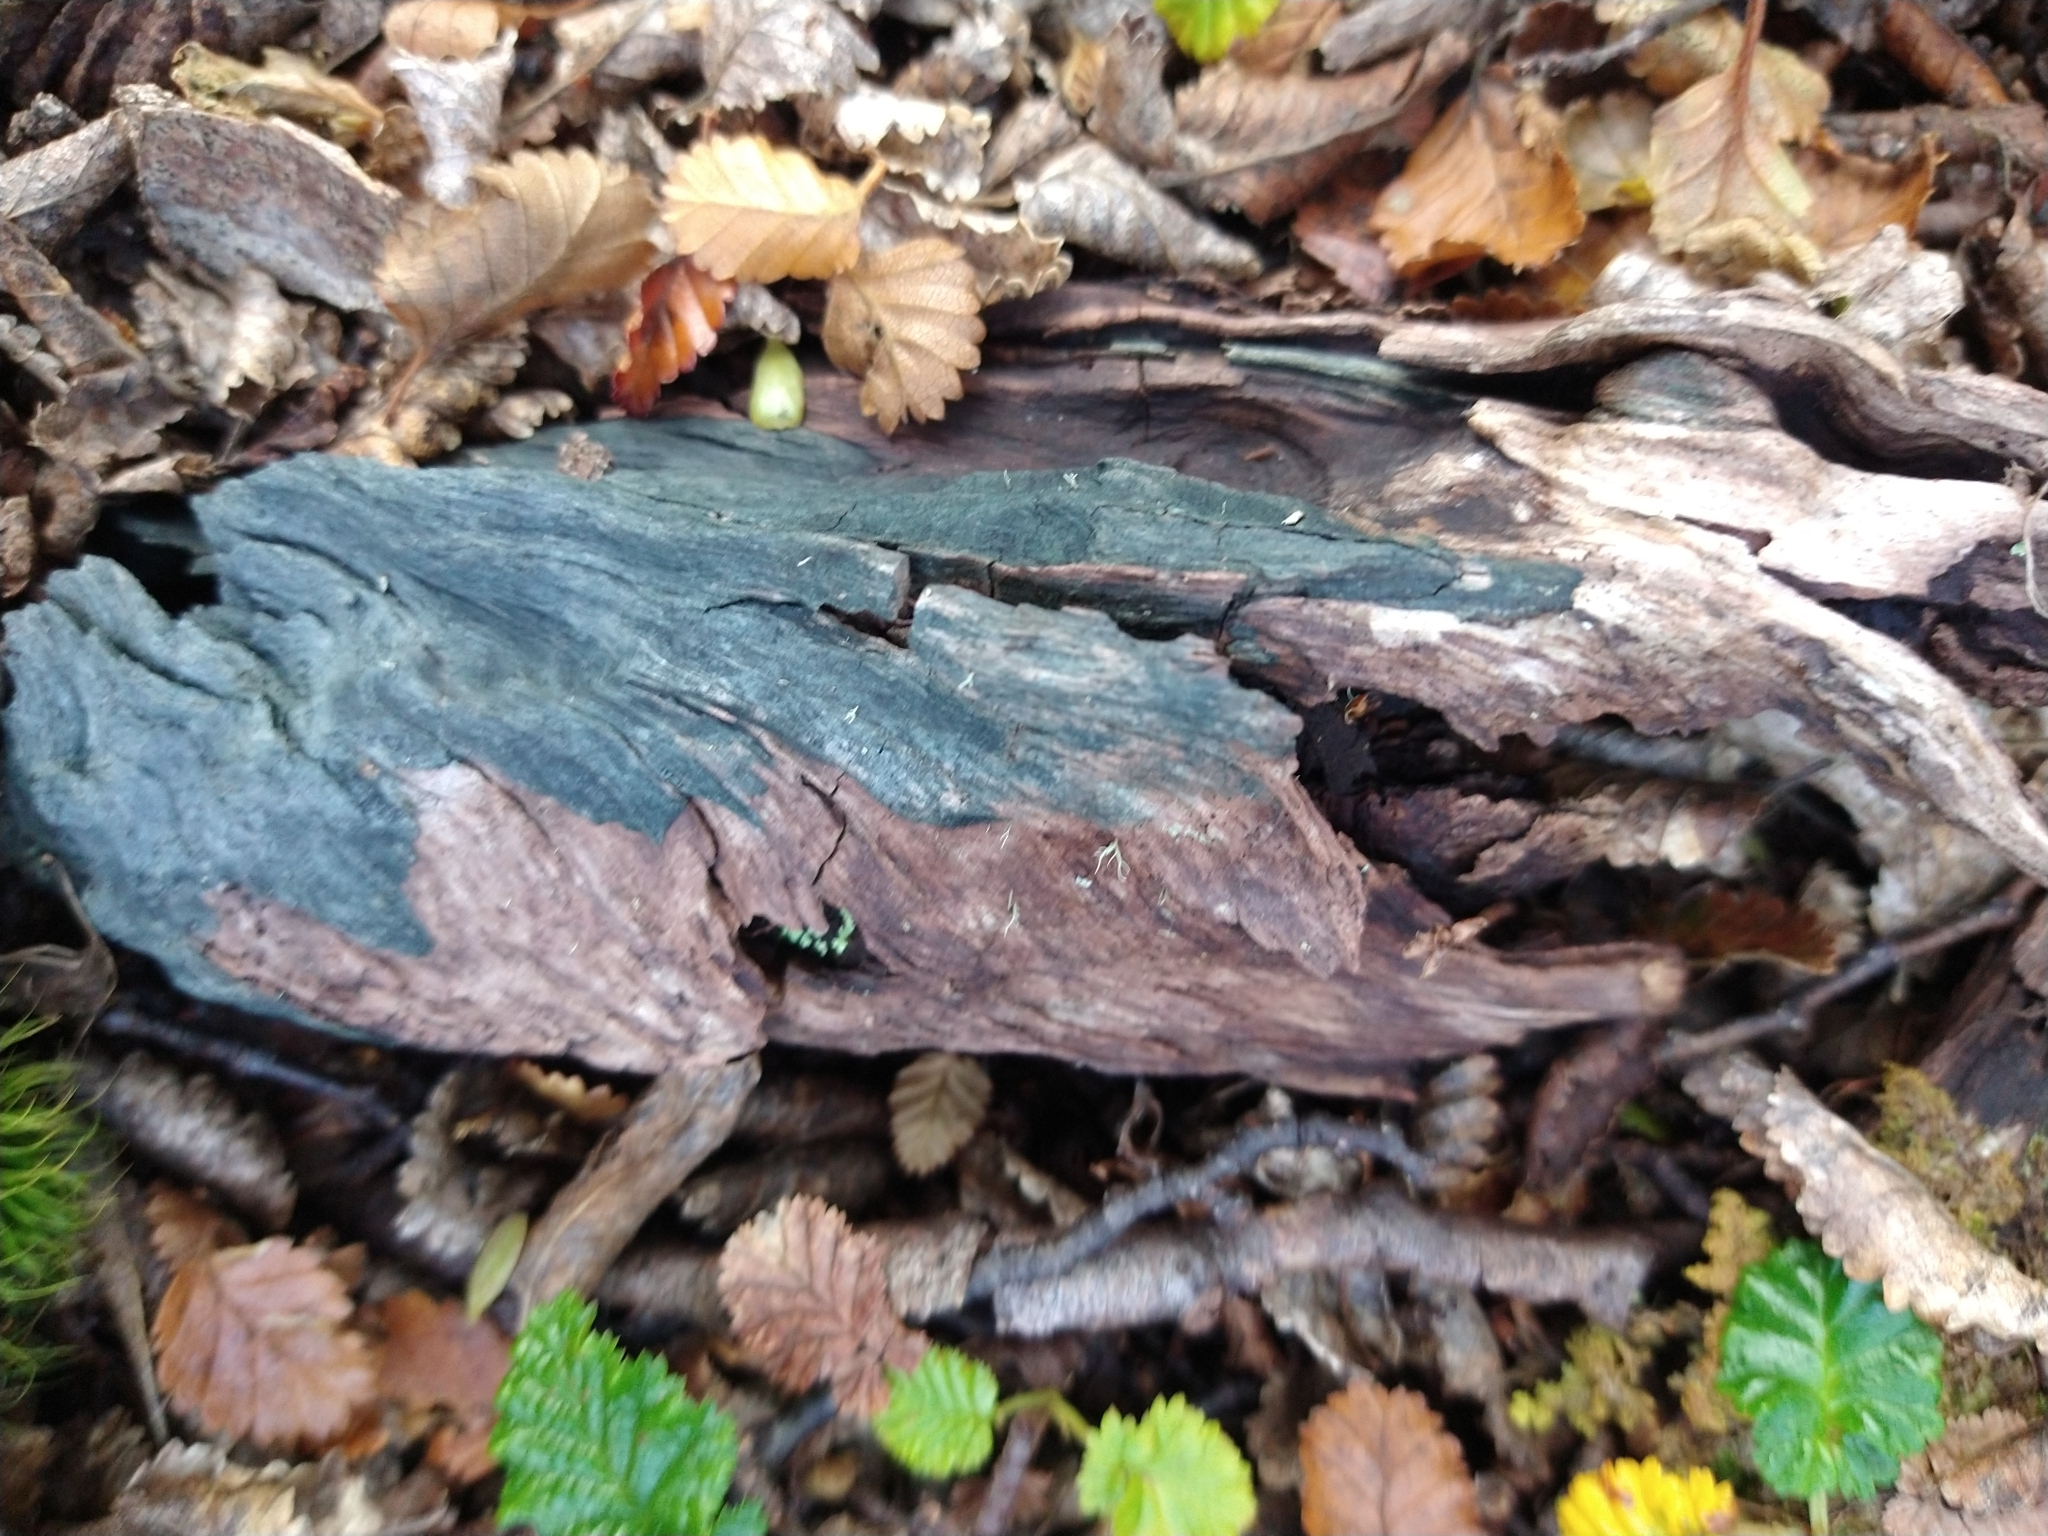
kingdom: Fungi
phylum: Ascomycota
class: Leotiomycetes
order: Helotiales
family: Chlorociboriaceae
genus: Chlorociboria
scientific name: Chlorociboria aeruginascens
